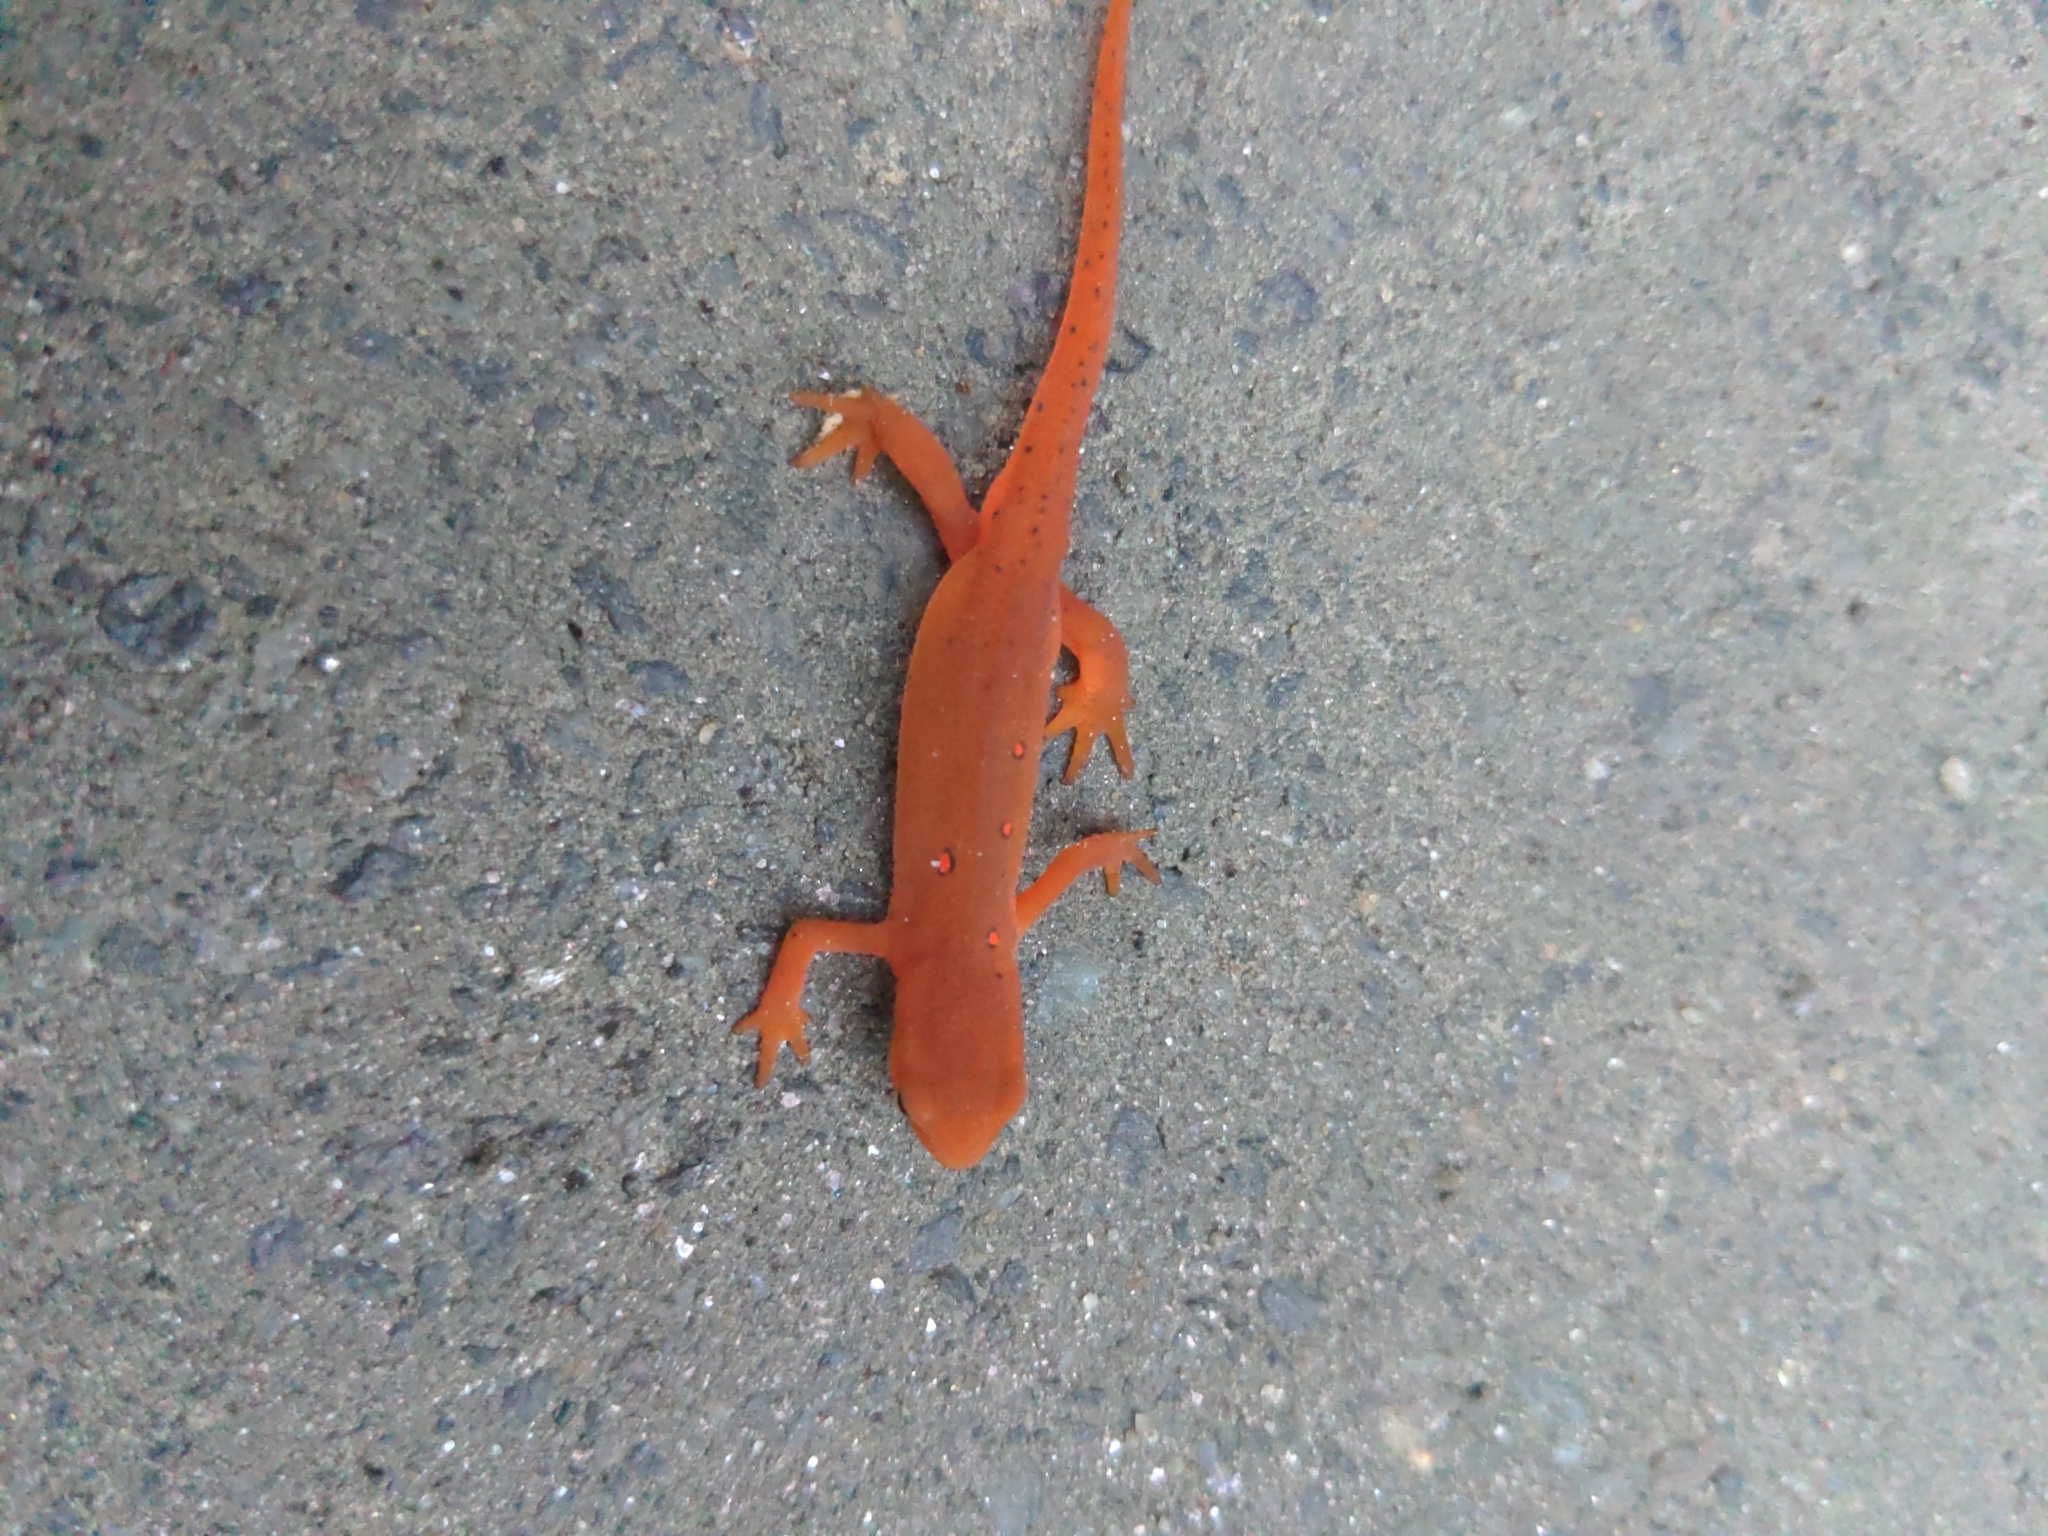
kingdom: Animalia
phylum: Chordata
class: Amphibia
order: Caudata
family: Salamandridae
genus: Notophthalmus
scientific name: Notophthalmus viridescens
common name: Eastern newt
